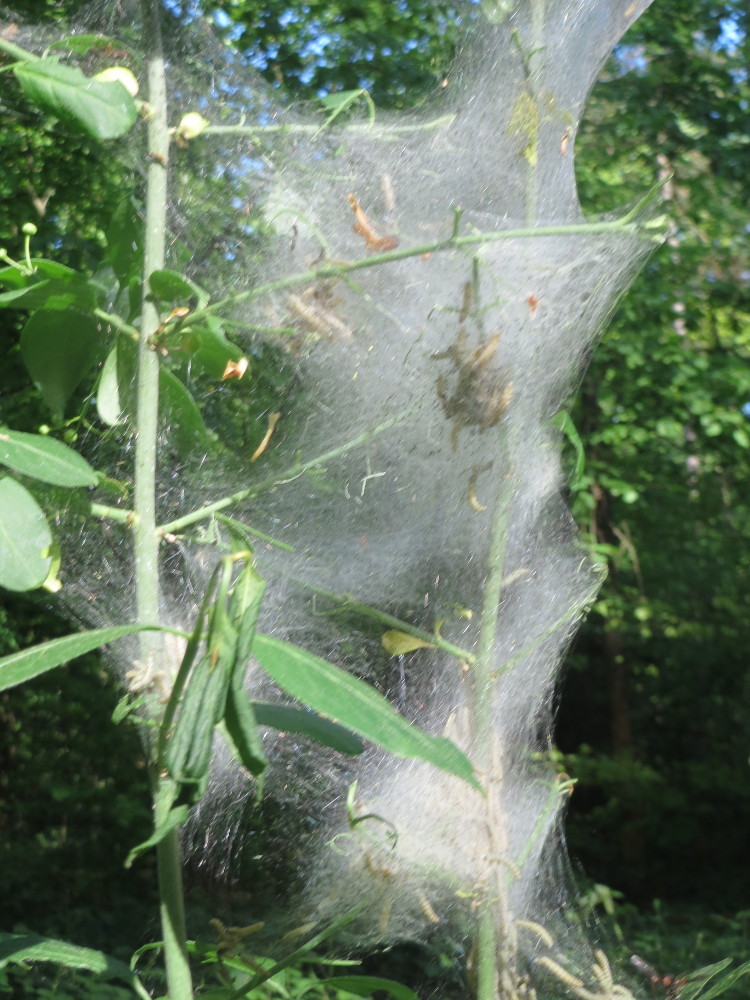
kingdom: Plantae
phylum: Tracheophyta
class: Magnoliopsida
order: Celastrales
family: Celastraceae
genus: Euonymus
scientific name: Euonymus europaeus
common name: Spindle
